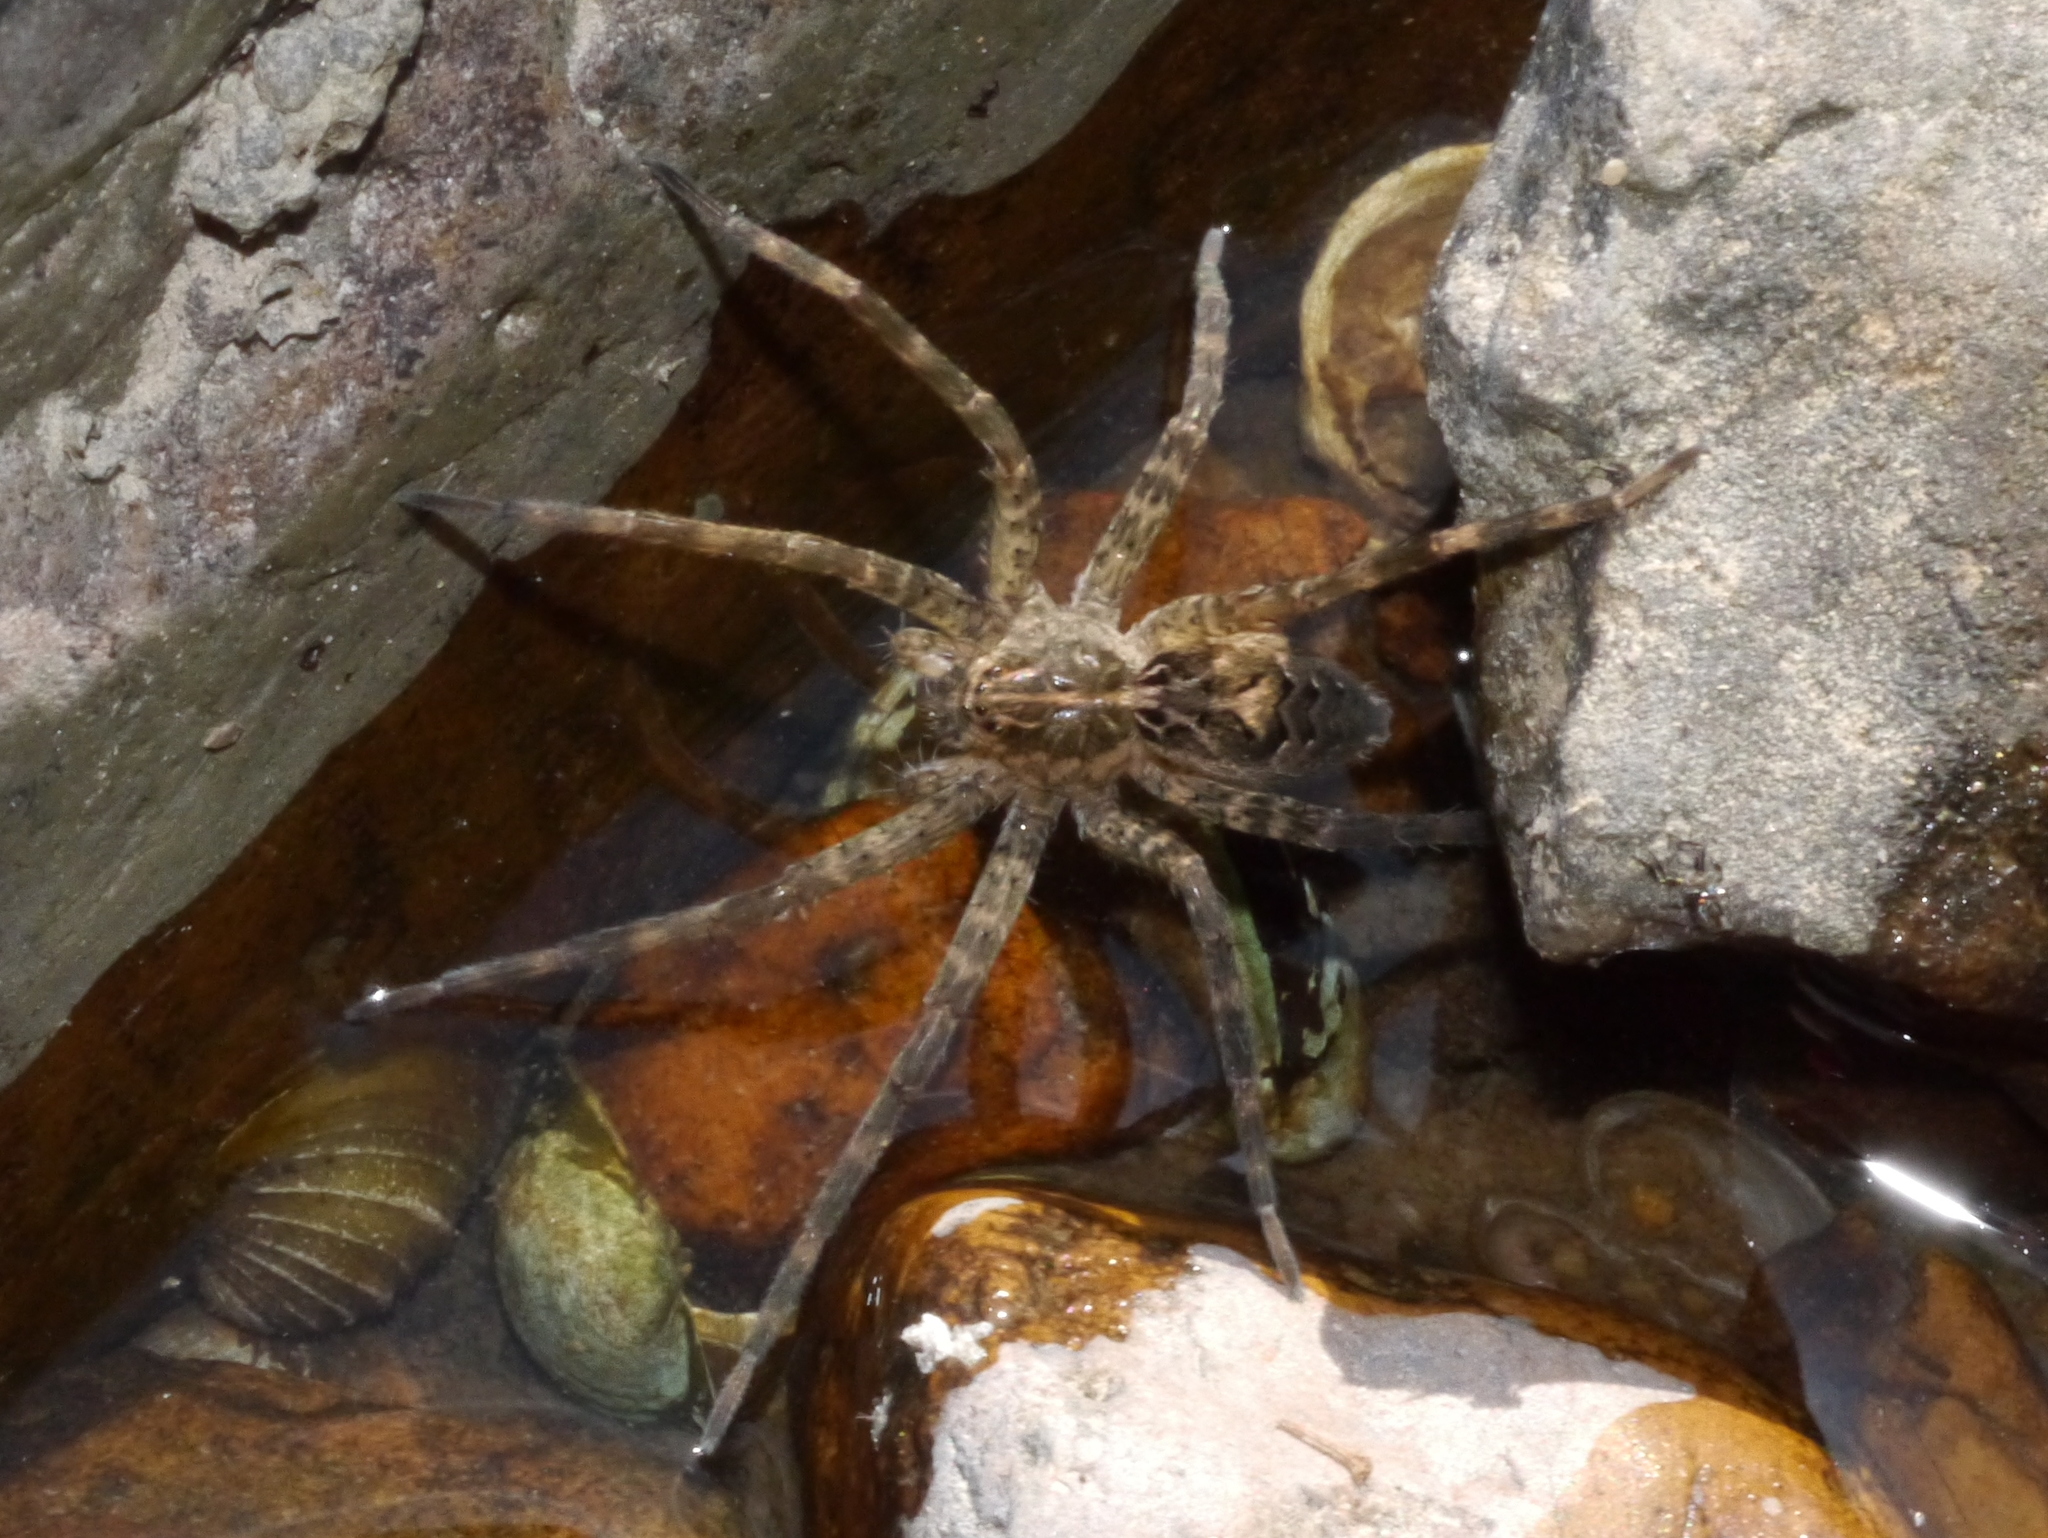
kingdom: Animalia
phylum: Arthropoda
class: Arachnida
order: Araneae
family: Pisauridae
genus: Dolomedes
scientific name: Dolomedes scriptus
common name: Striped fishing spider
